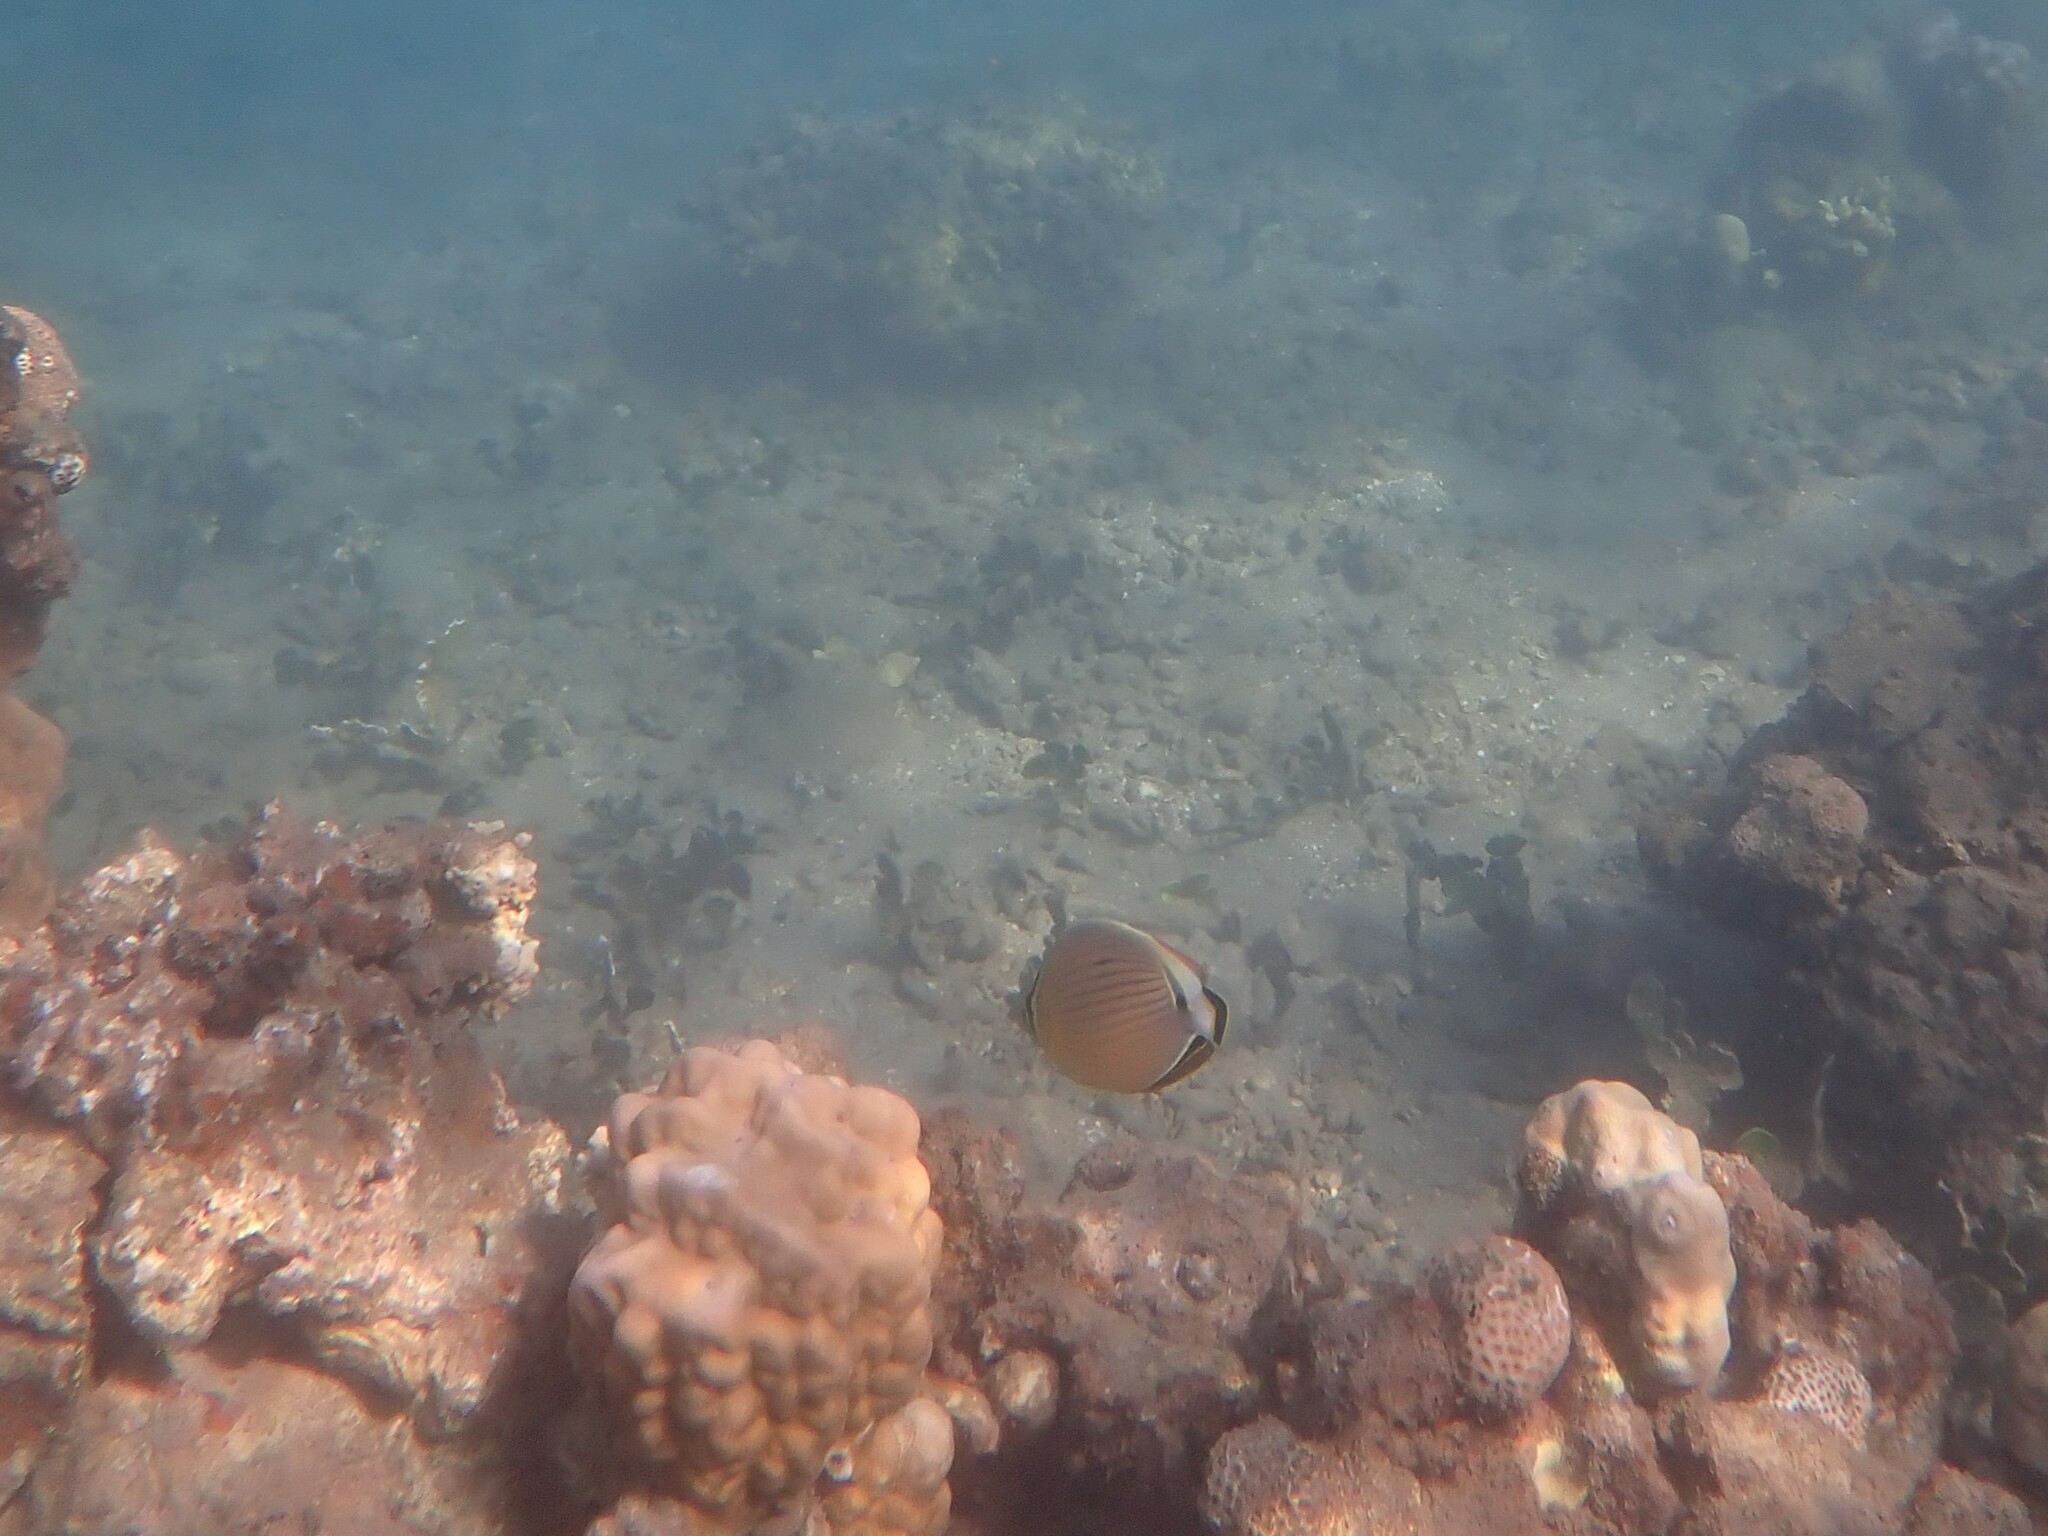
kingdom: Animalia
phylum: Chordata
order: Perciformes
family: Chaetodontidae
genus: Chaetodon
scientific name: Chaetodon lunulatus
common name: Redfin butterflyfish
